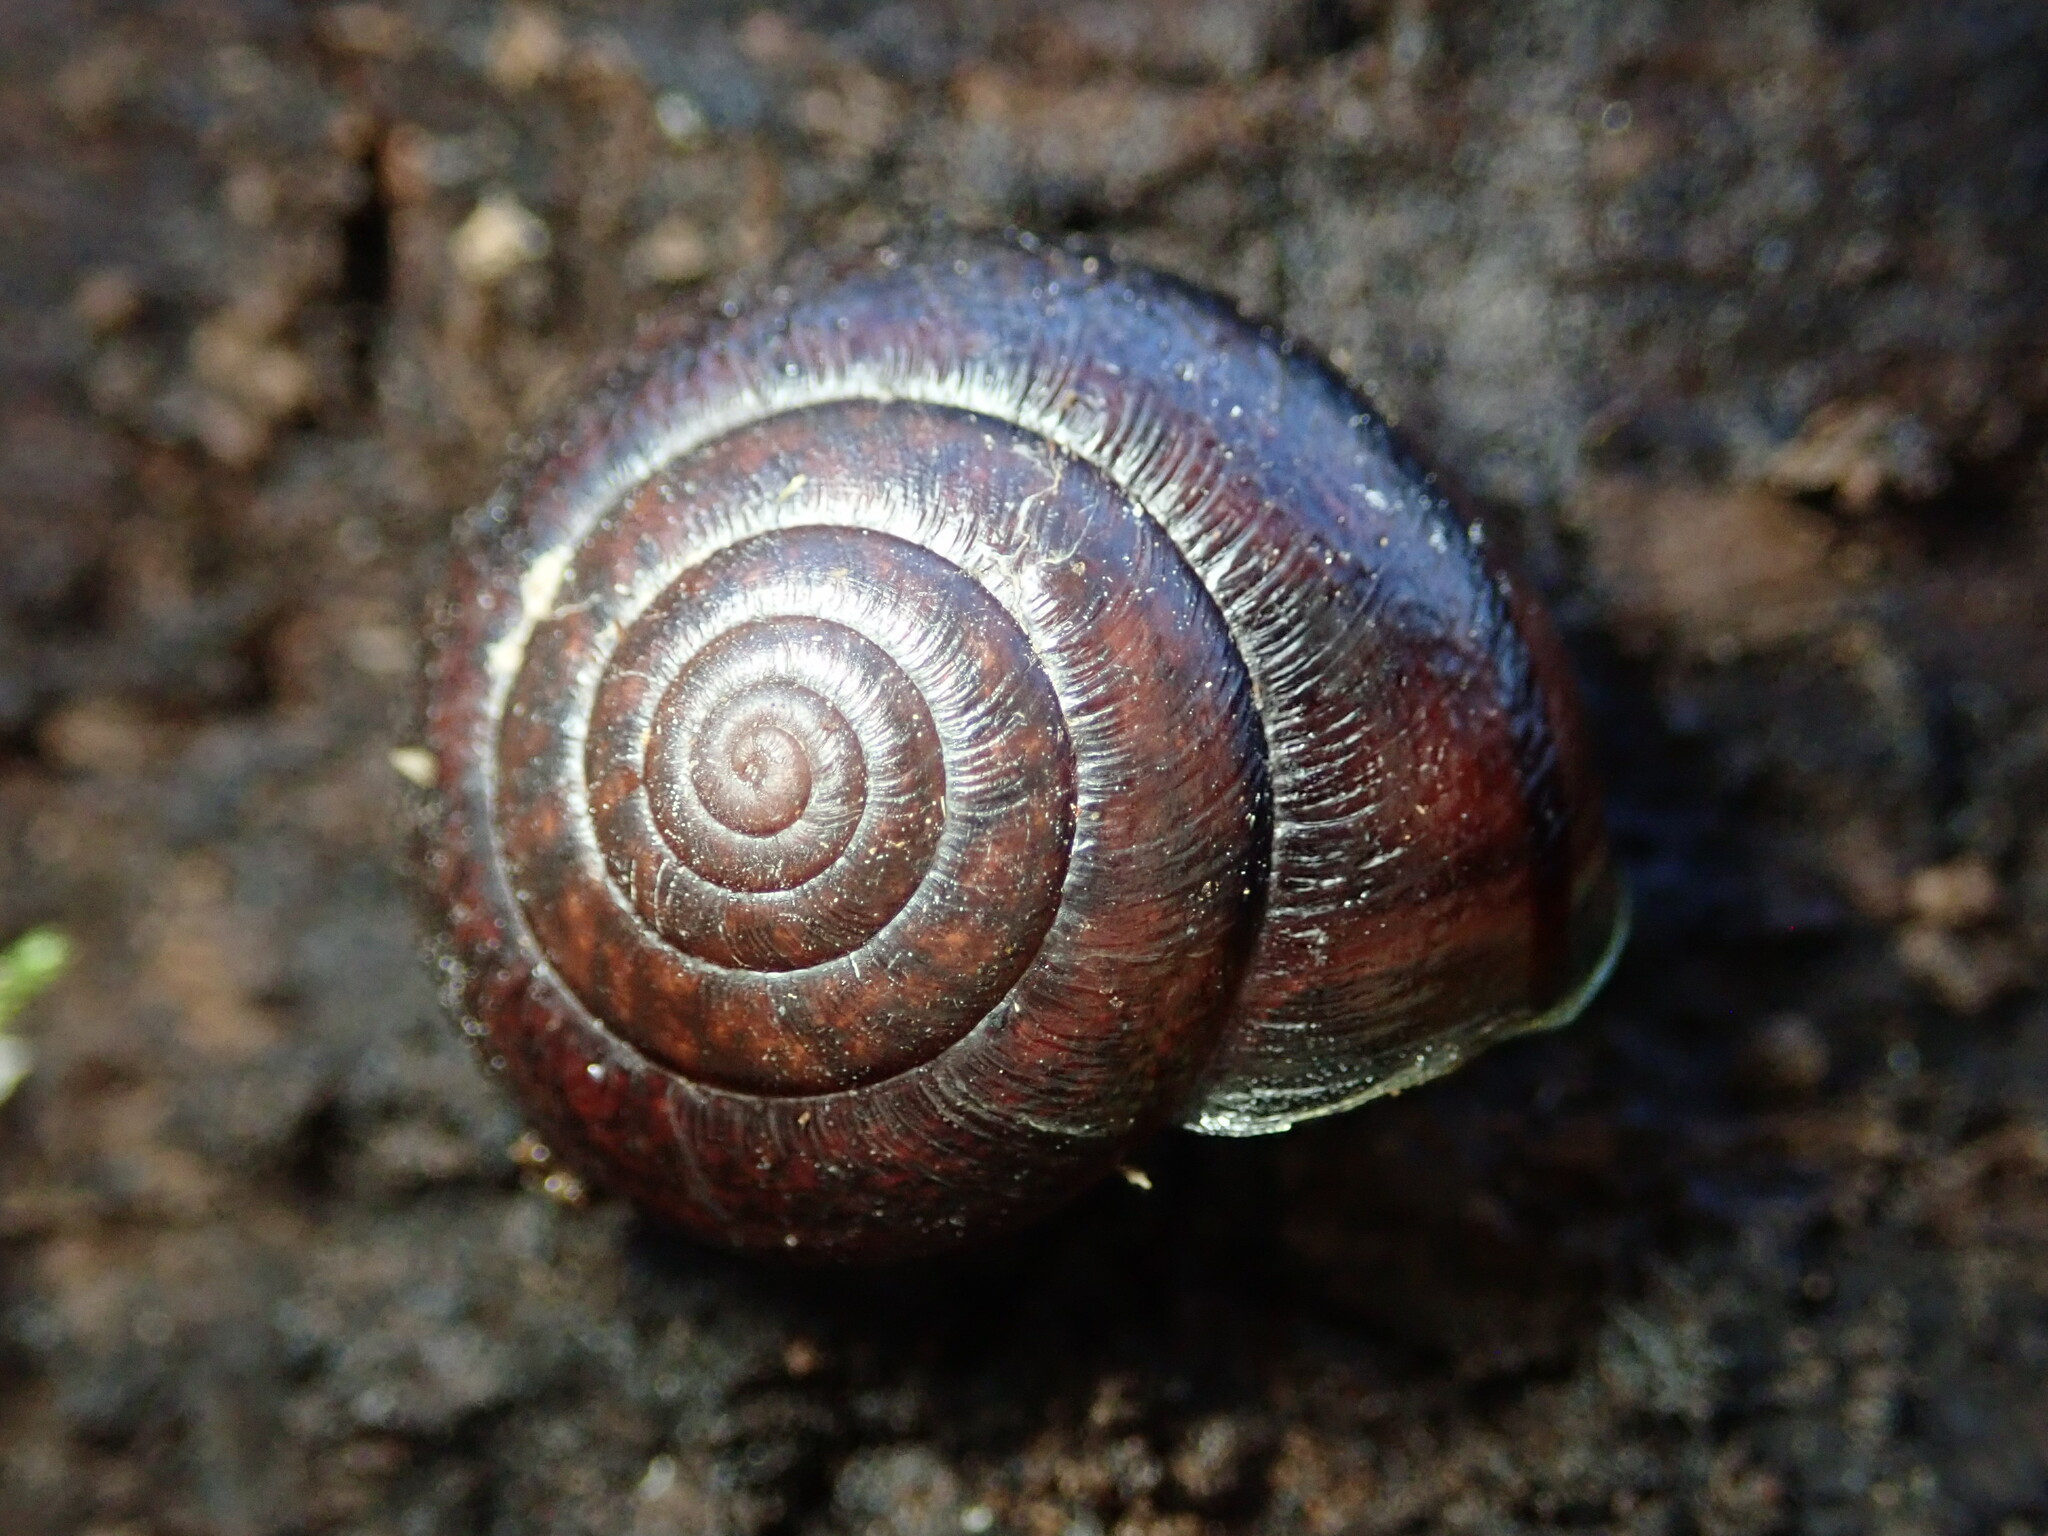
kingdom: Animalia
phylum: Mollusca
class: Gastropoda
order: Stylommatophora
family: Xanthonychidae
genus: Helminthoglypta
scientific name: Helminthoglypta sonoma
